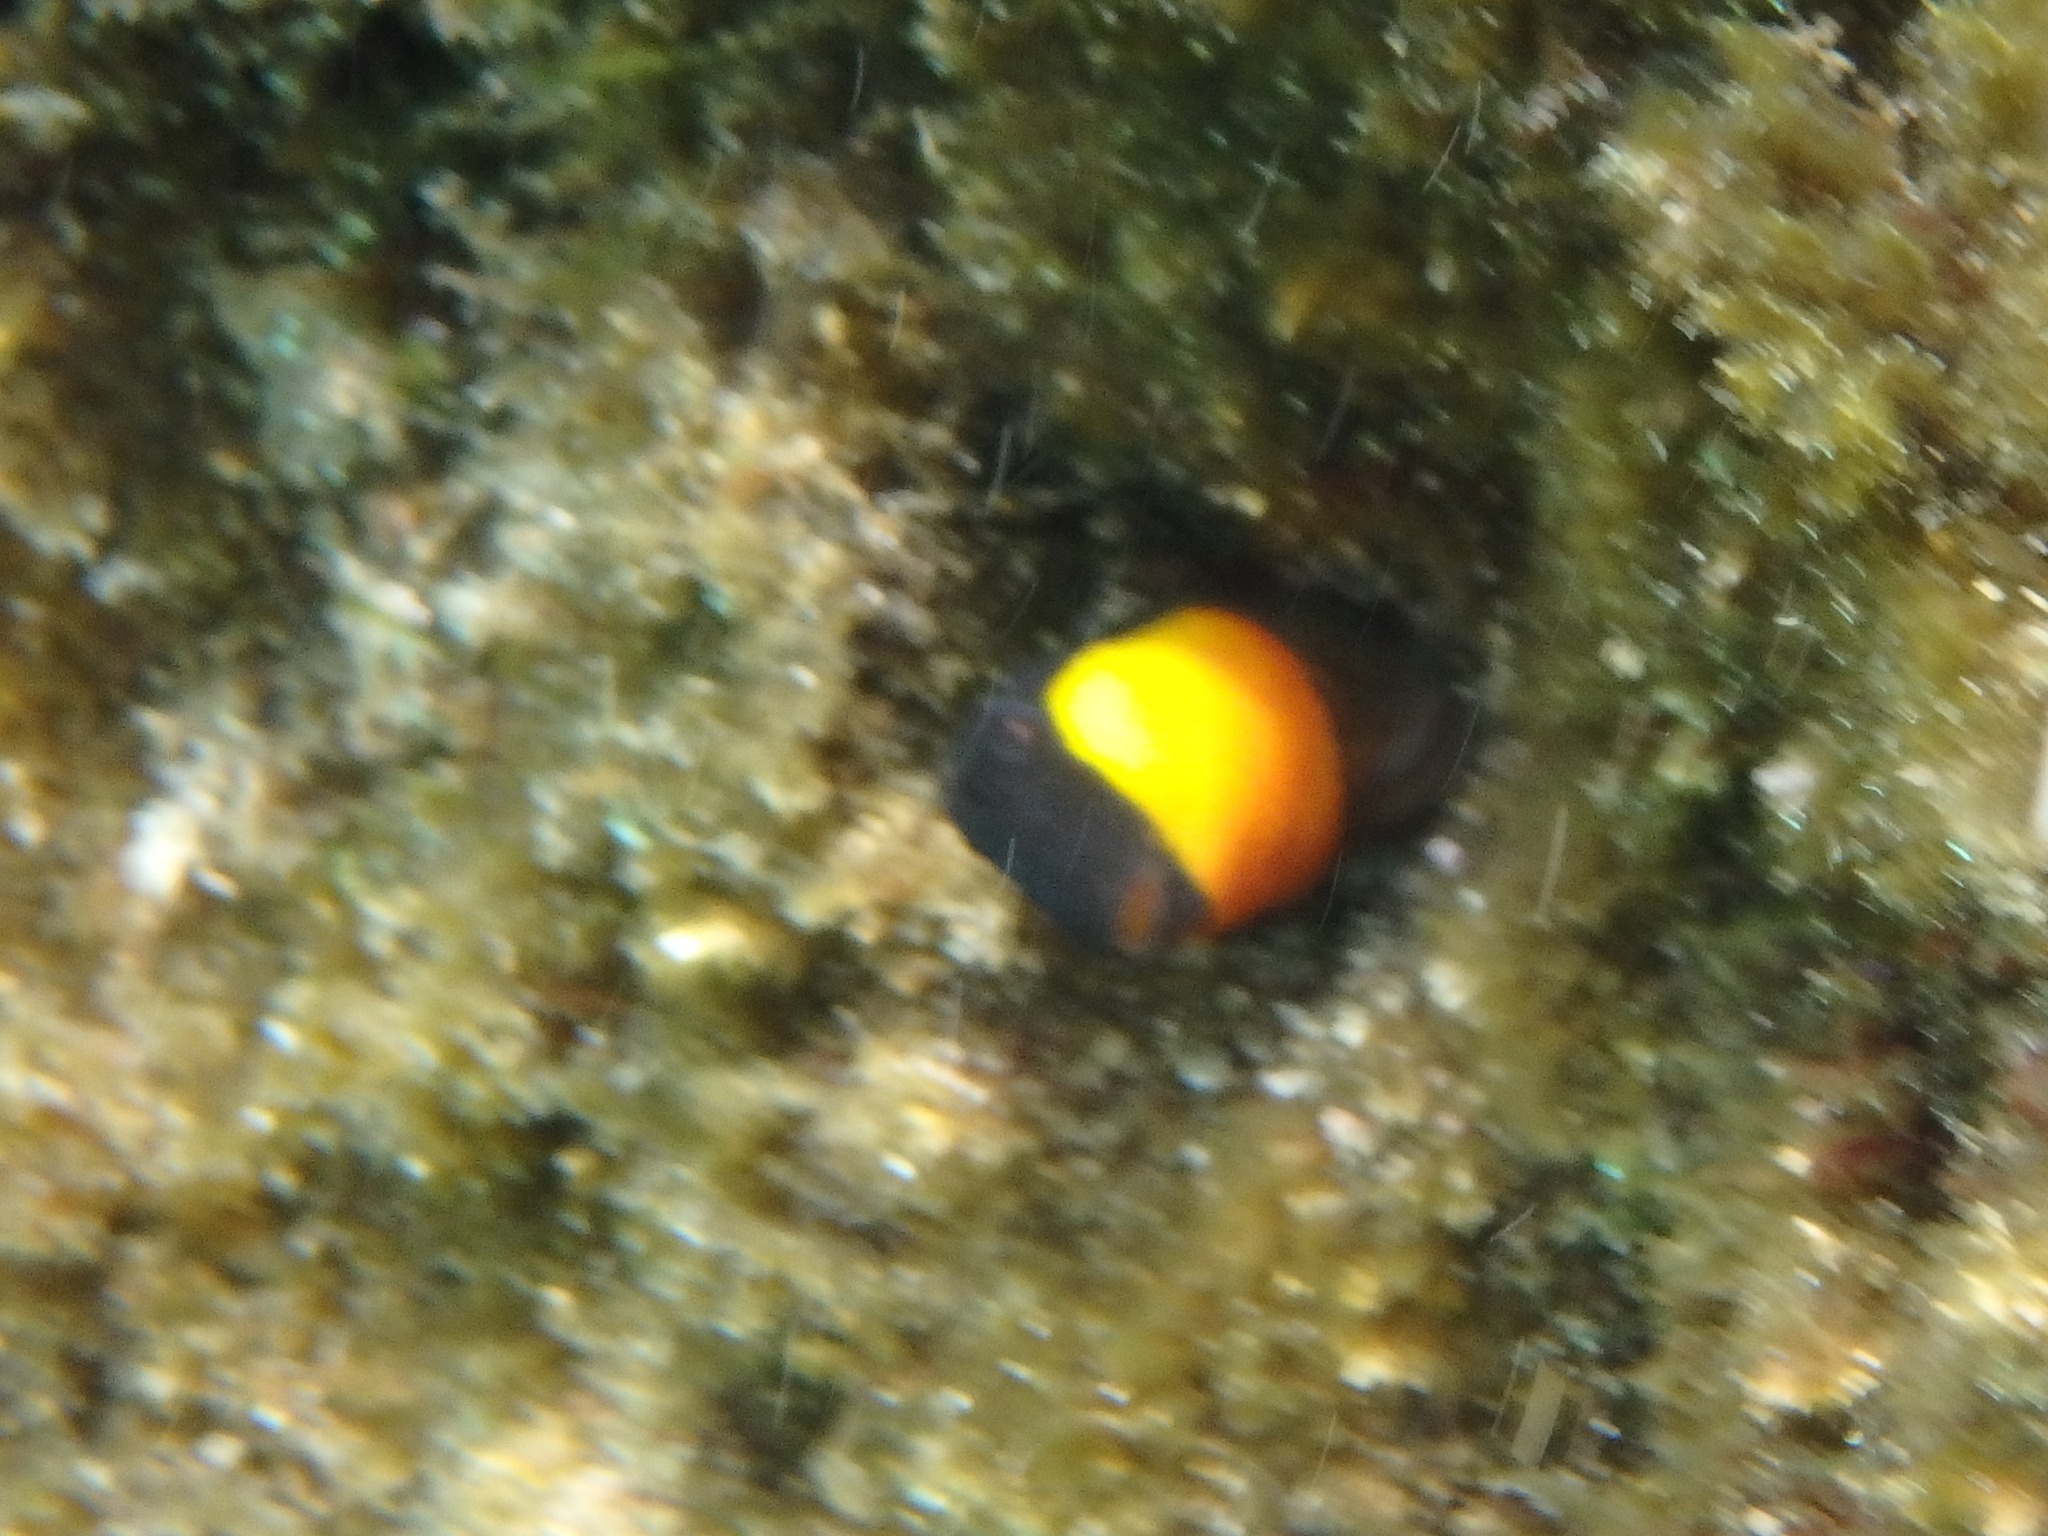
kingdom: Animalia
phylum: Chordata
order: Perciformes
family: Blenniidae
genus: Microlipophrys
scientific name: Microlipophrys canevae
